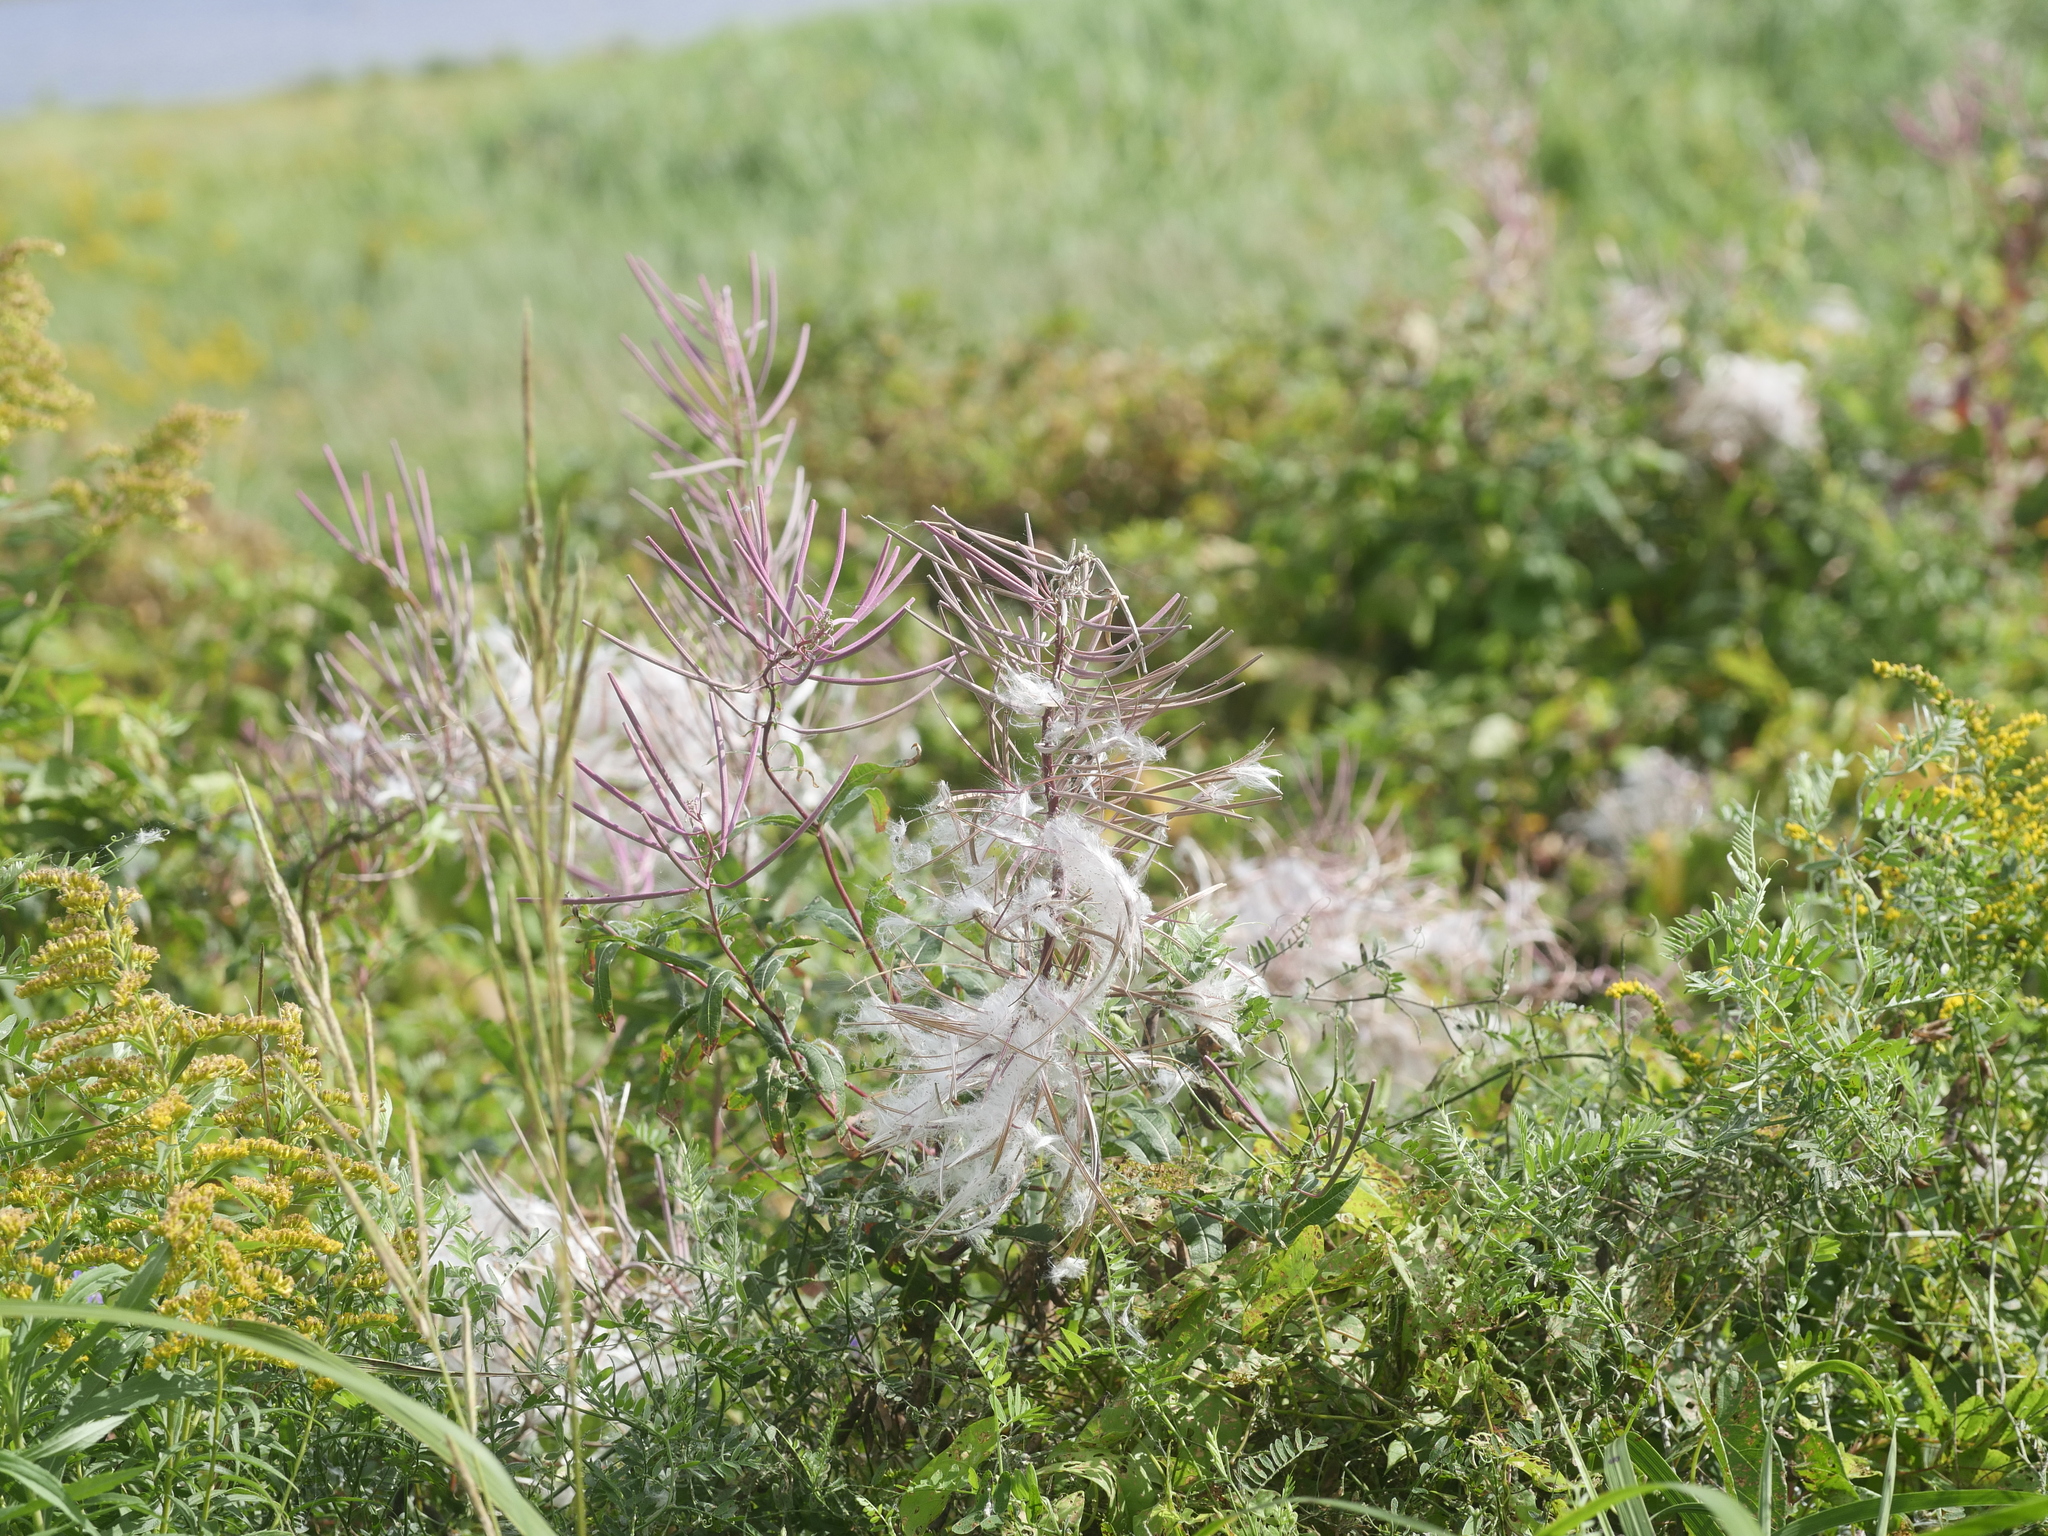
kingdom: Plantae
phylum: Tracheophyta
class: Magnoliopsida
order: Myrtales
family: Onagraceae
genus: Chamaenerion
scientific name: Chamaenerion angustifolium
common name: Fireweed
